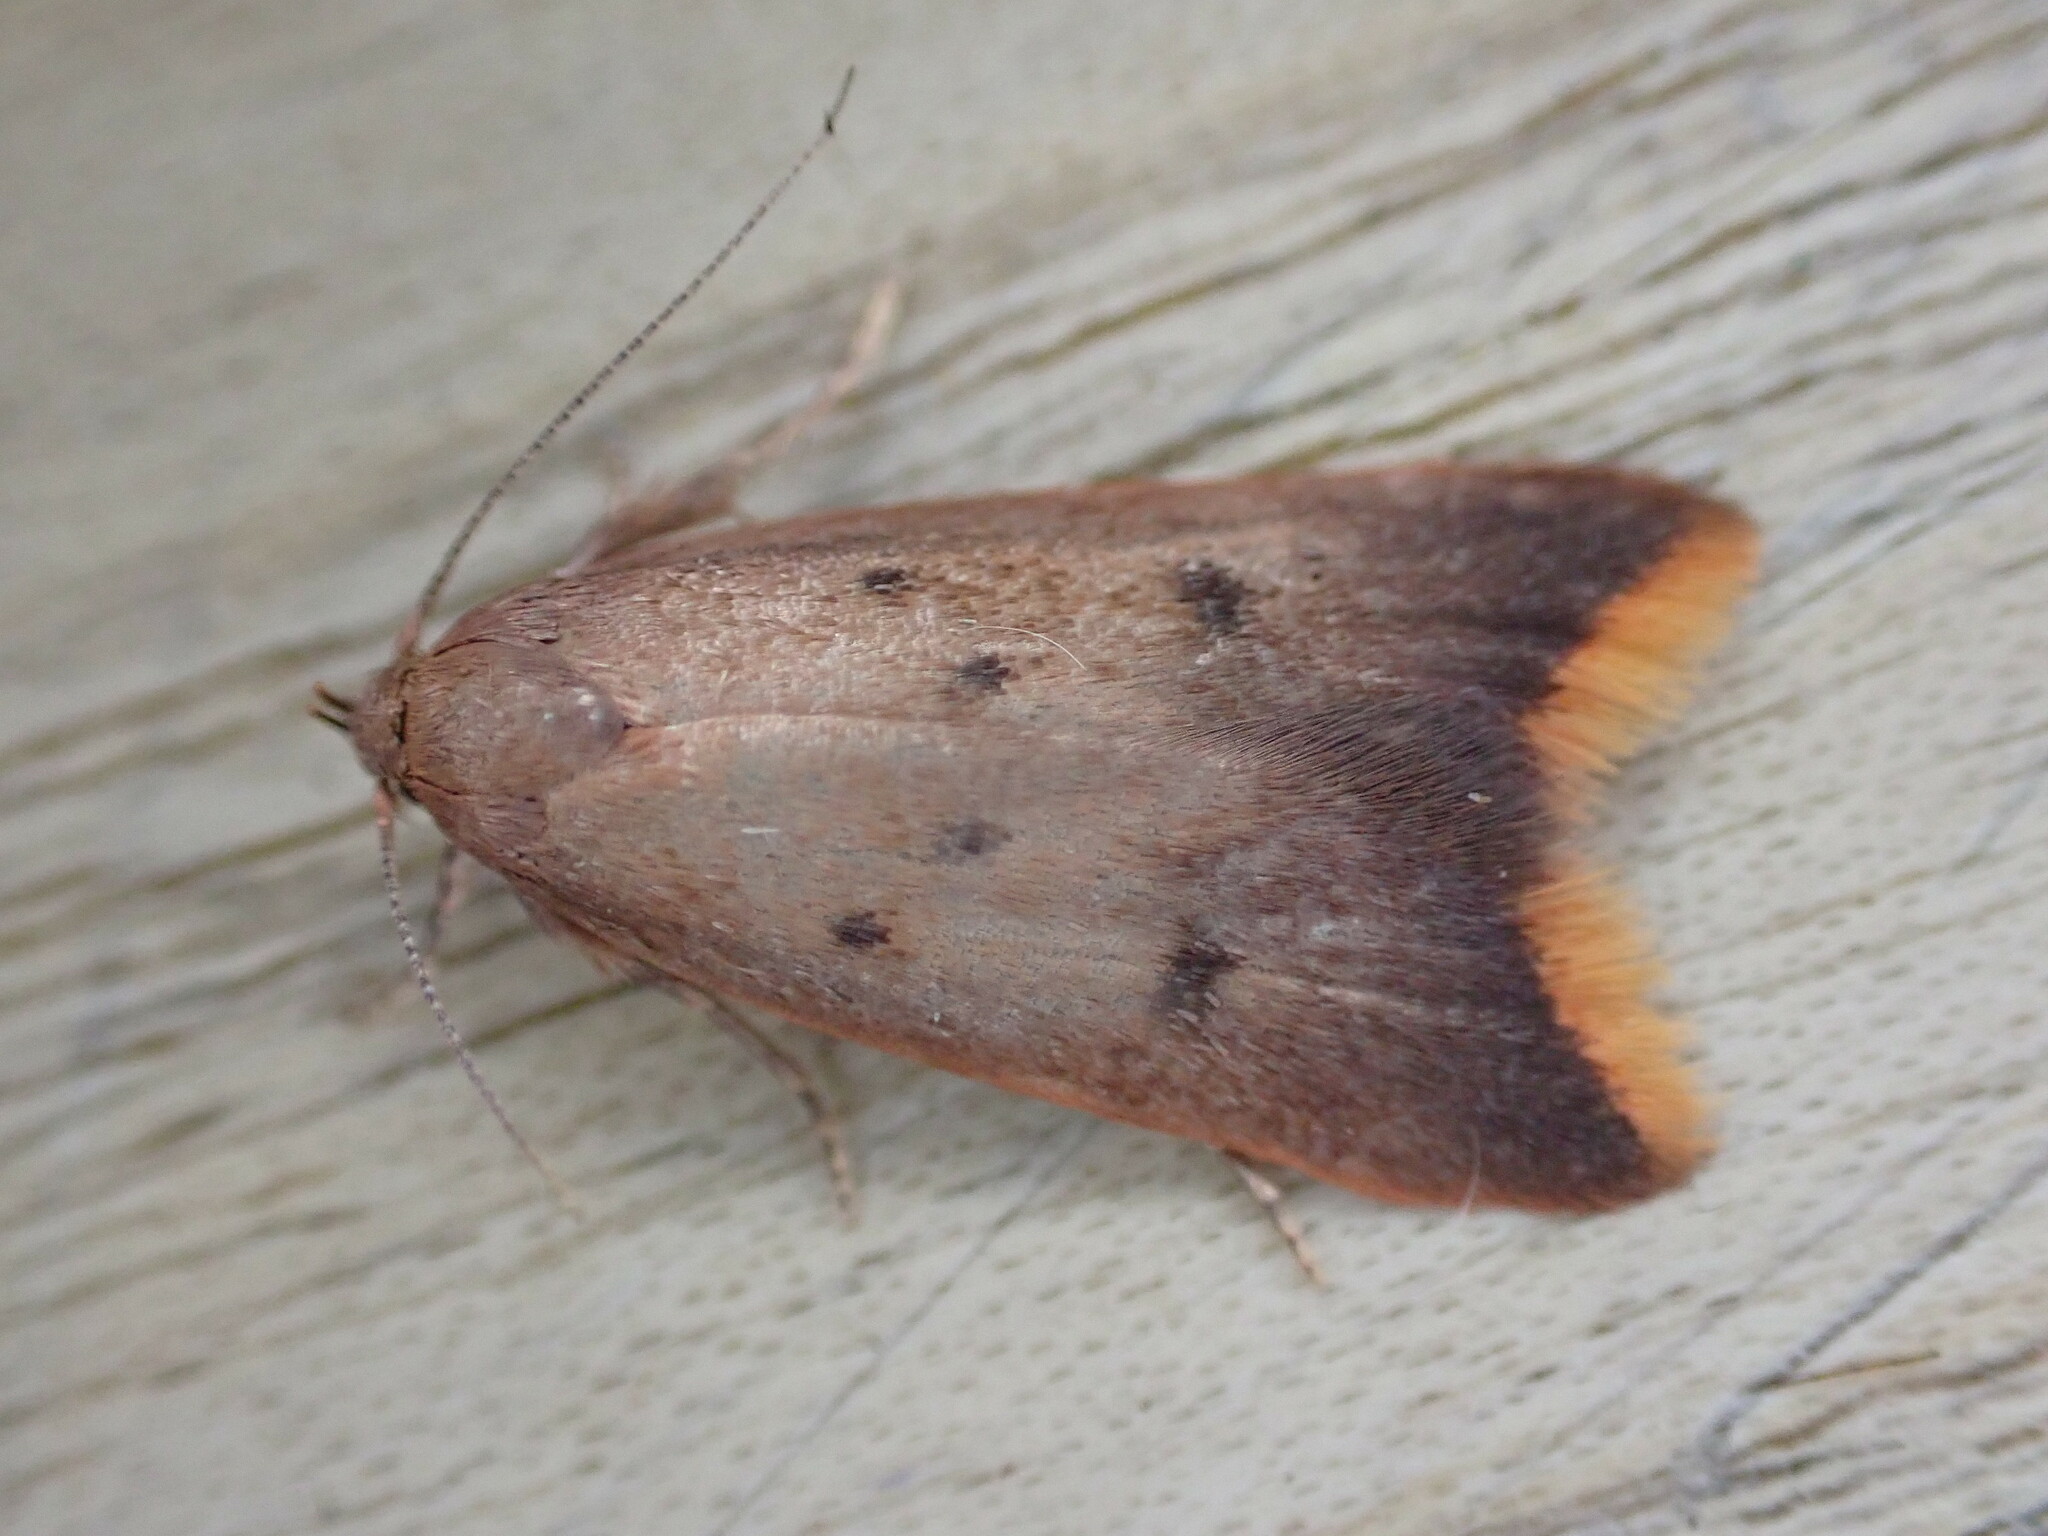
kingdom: Animalia
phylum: Arthropoda
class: Insecta
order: Lepidoptera
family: Oecophoridae
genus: Tachystola
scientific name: Tachystola acroxantha
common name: Ruddy streak
